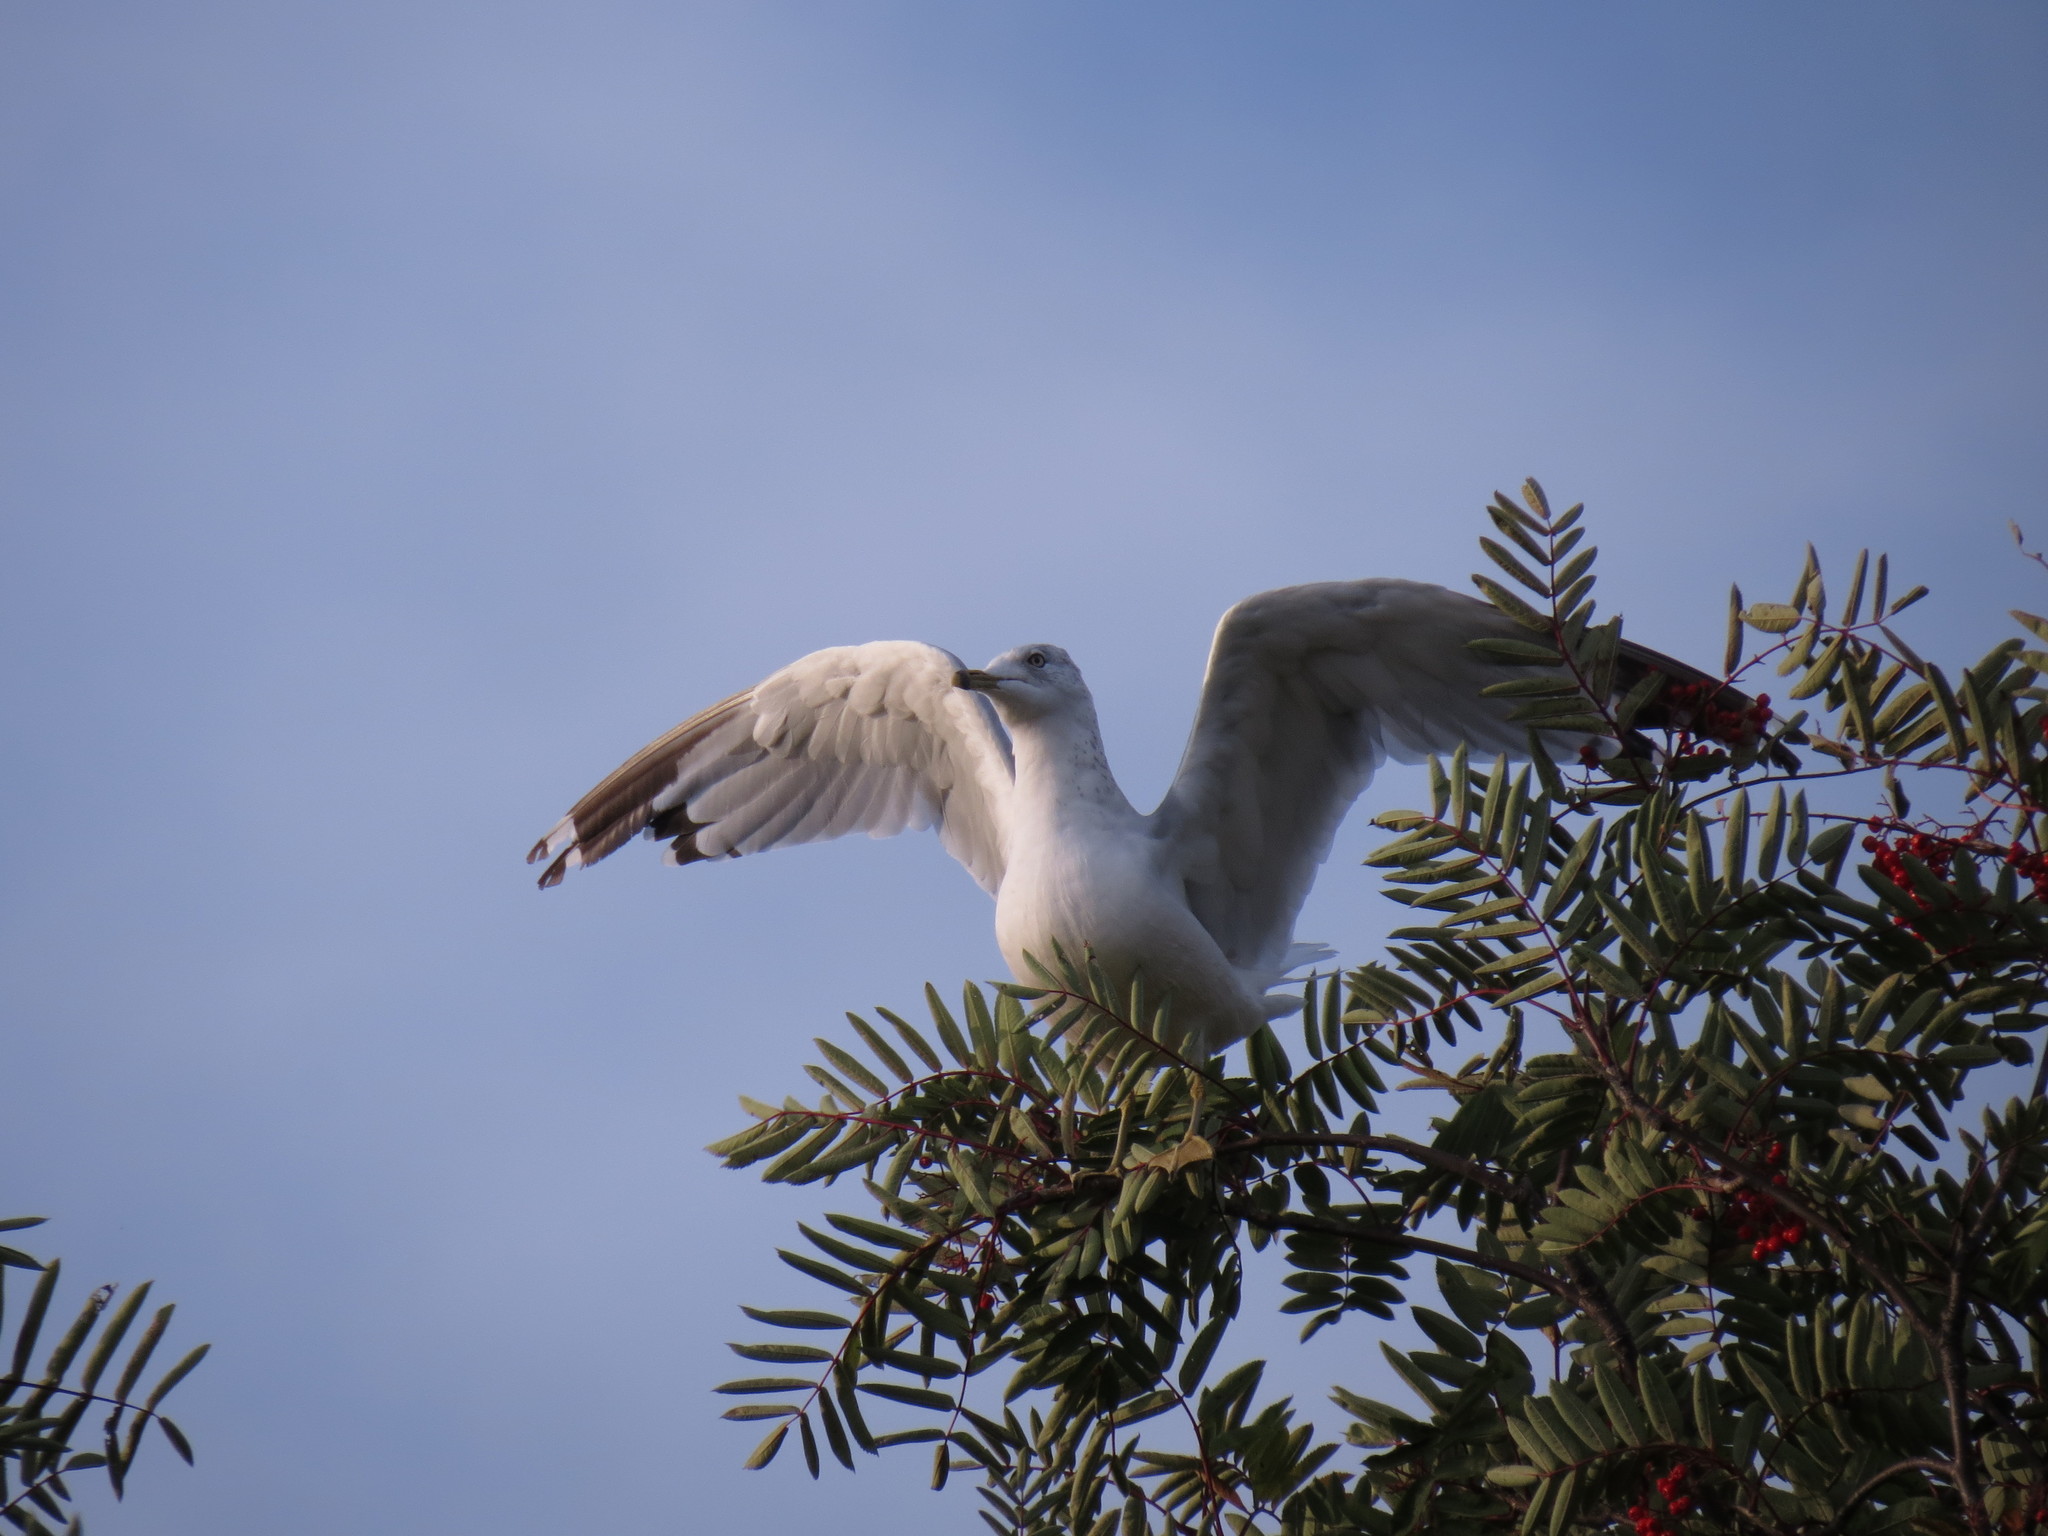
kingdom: Animalia
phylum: Chordata
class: Aves
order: Charadriiformes
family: Laridae
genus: Larus
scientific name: Larus delawarensis
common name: Ring-billed gull
